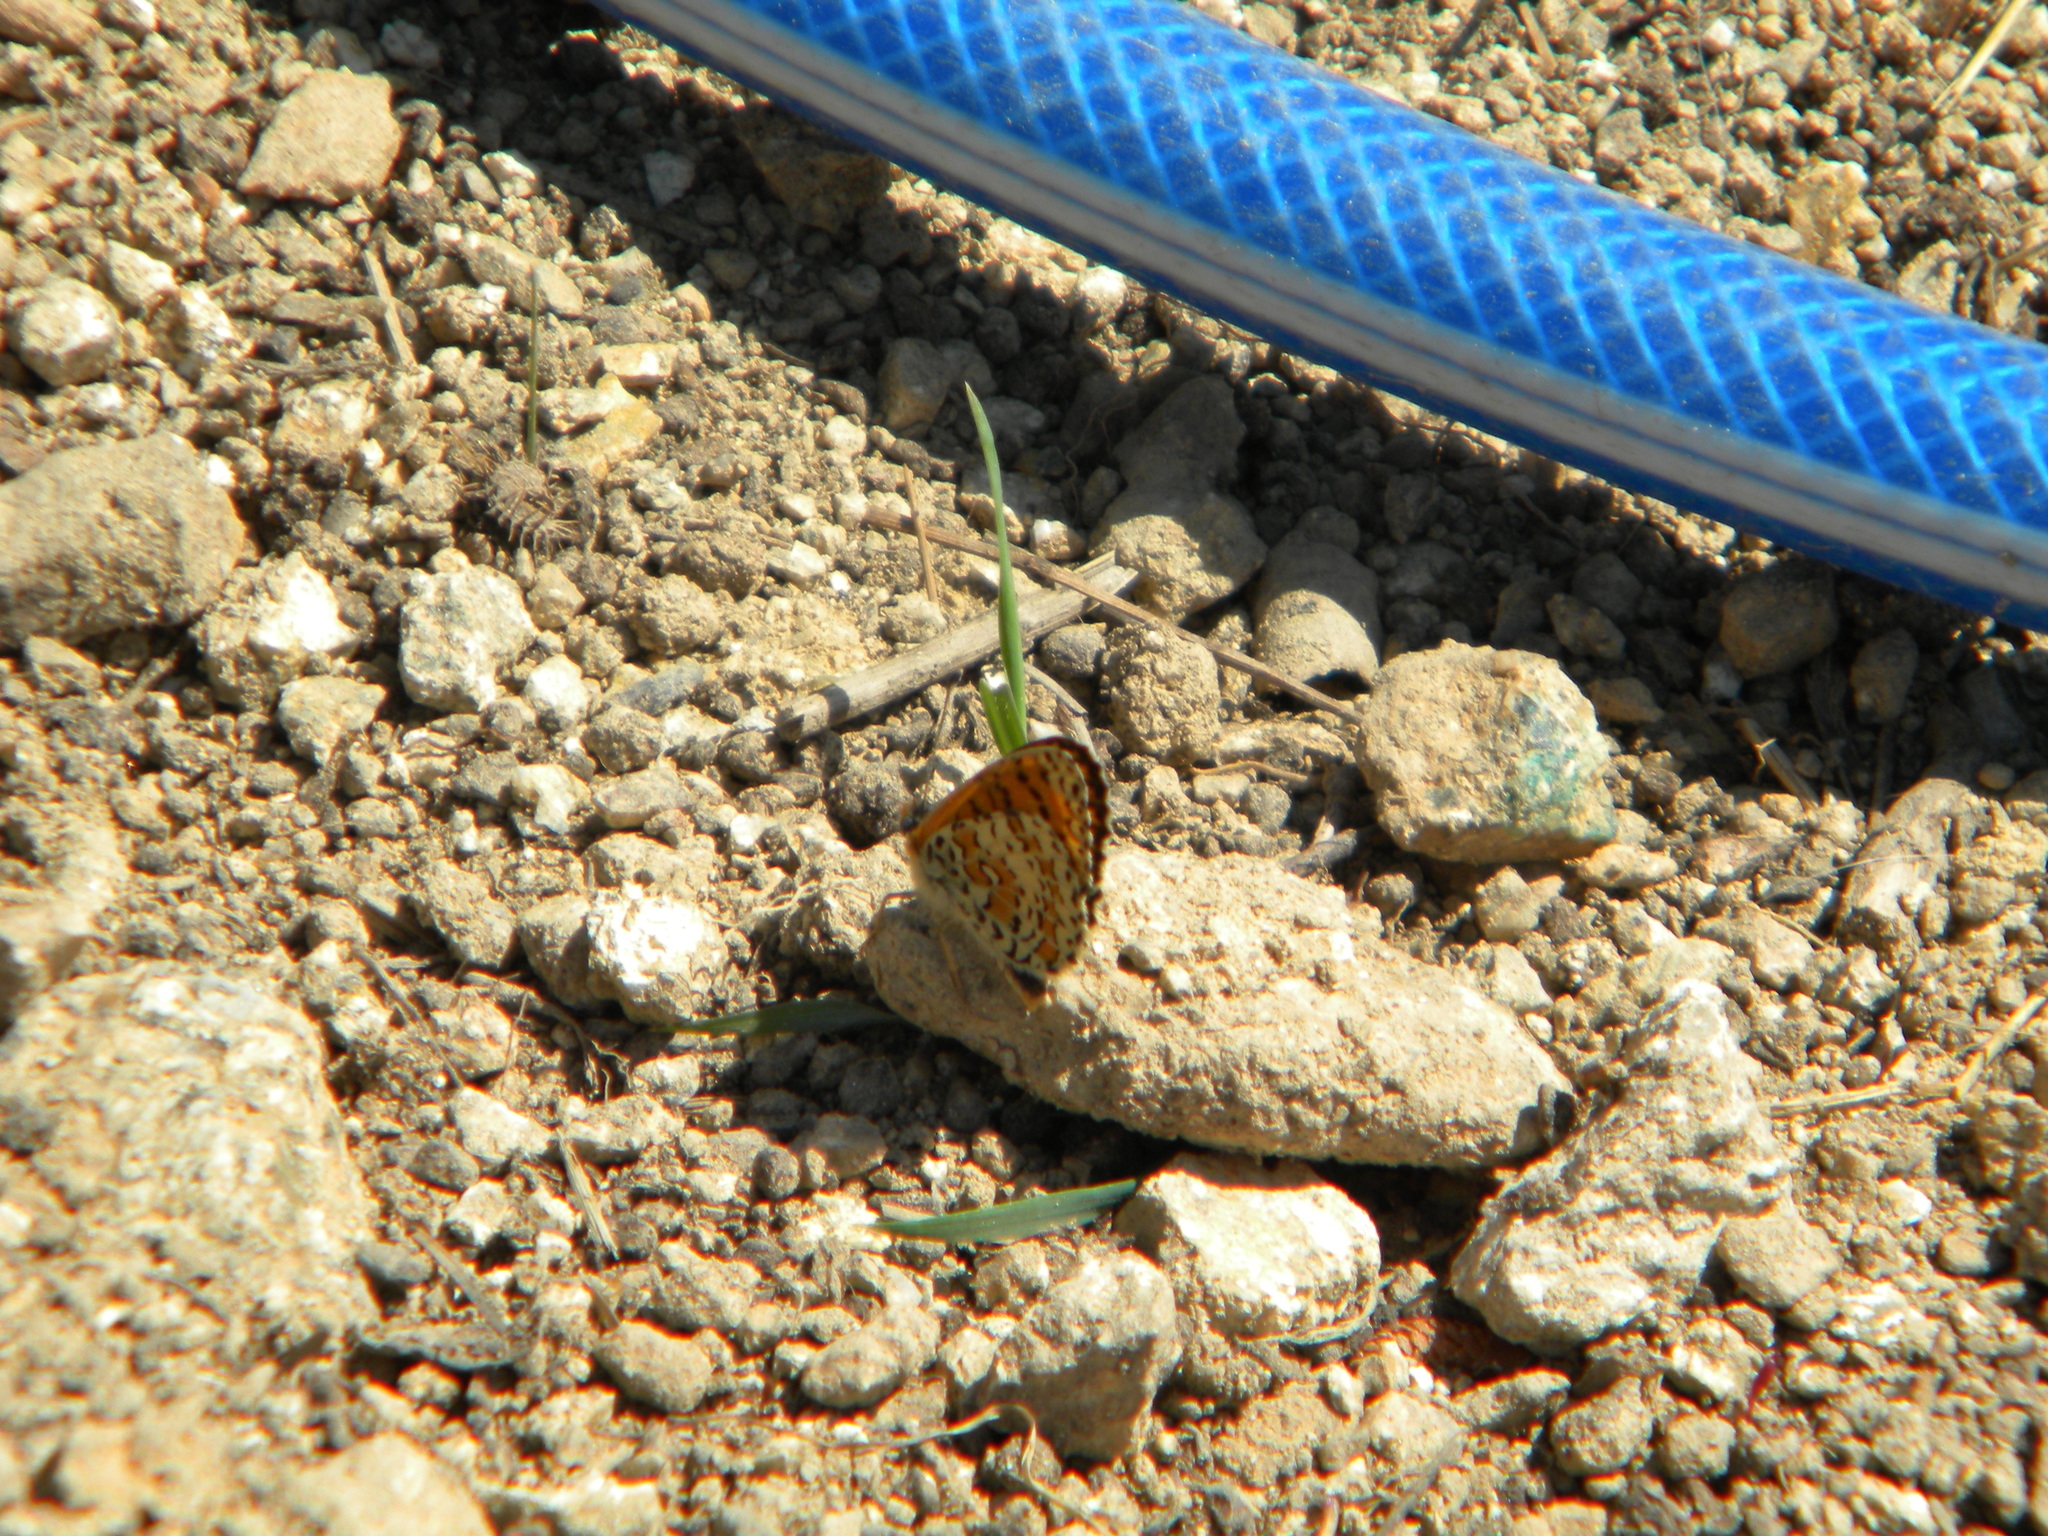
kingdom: Animalia
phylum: Arthropoda
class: Insecta
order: Lepidoptera
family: Nymphalidae
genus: Melitaea
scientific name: Melitaea didyma
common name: Spotted fritillary
